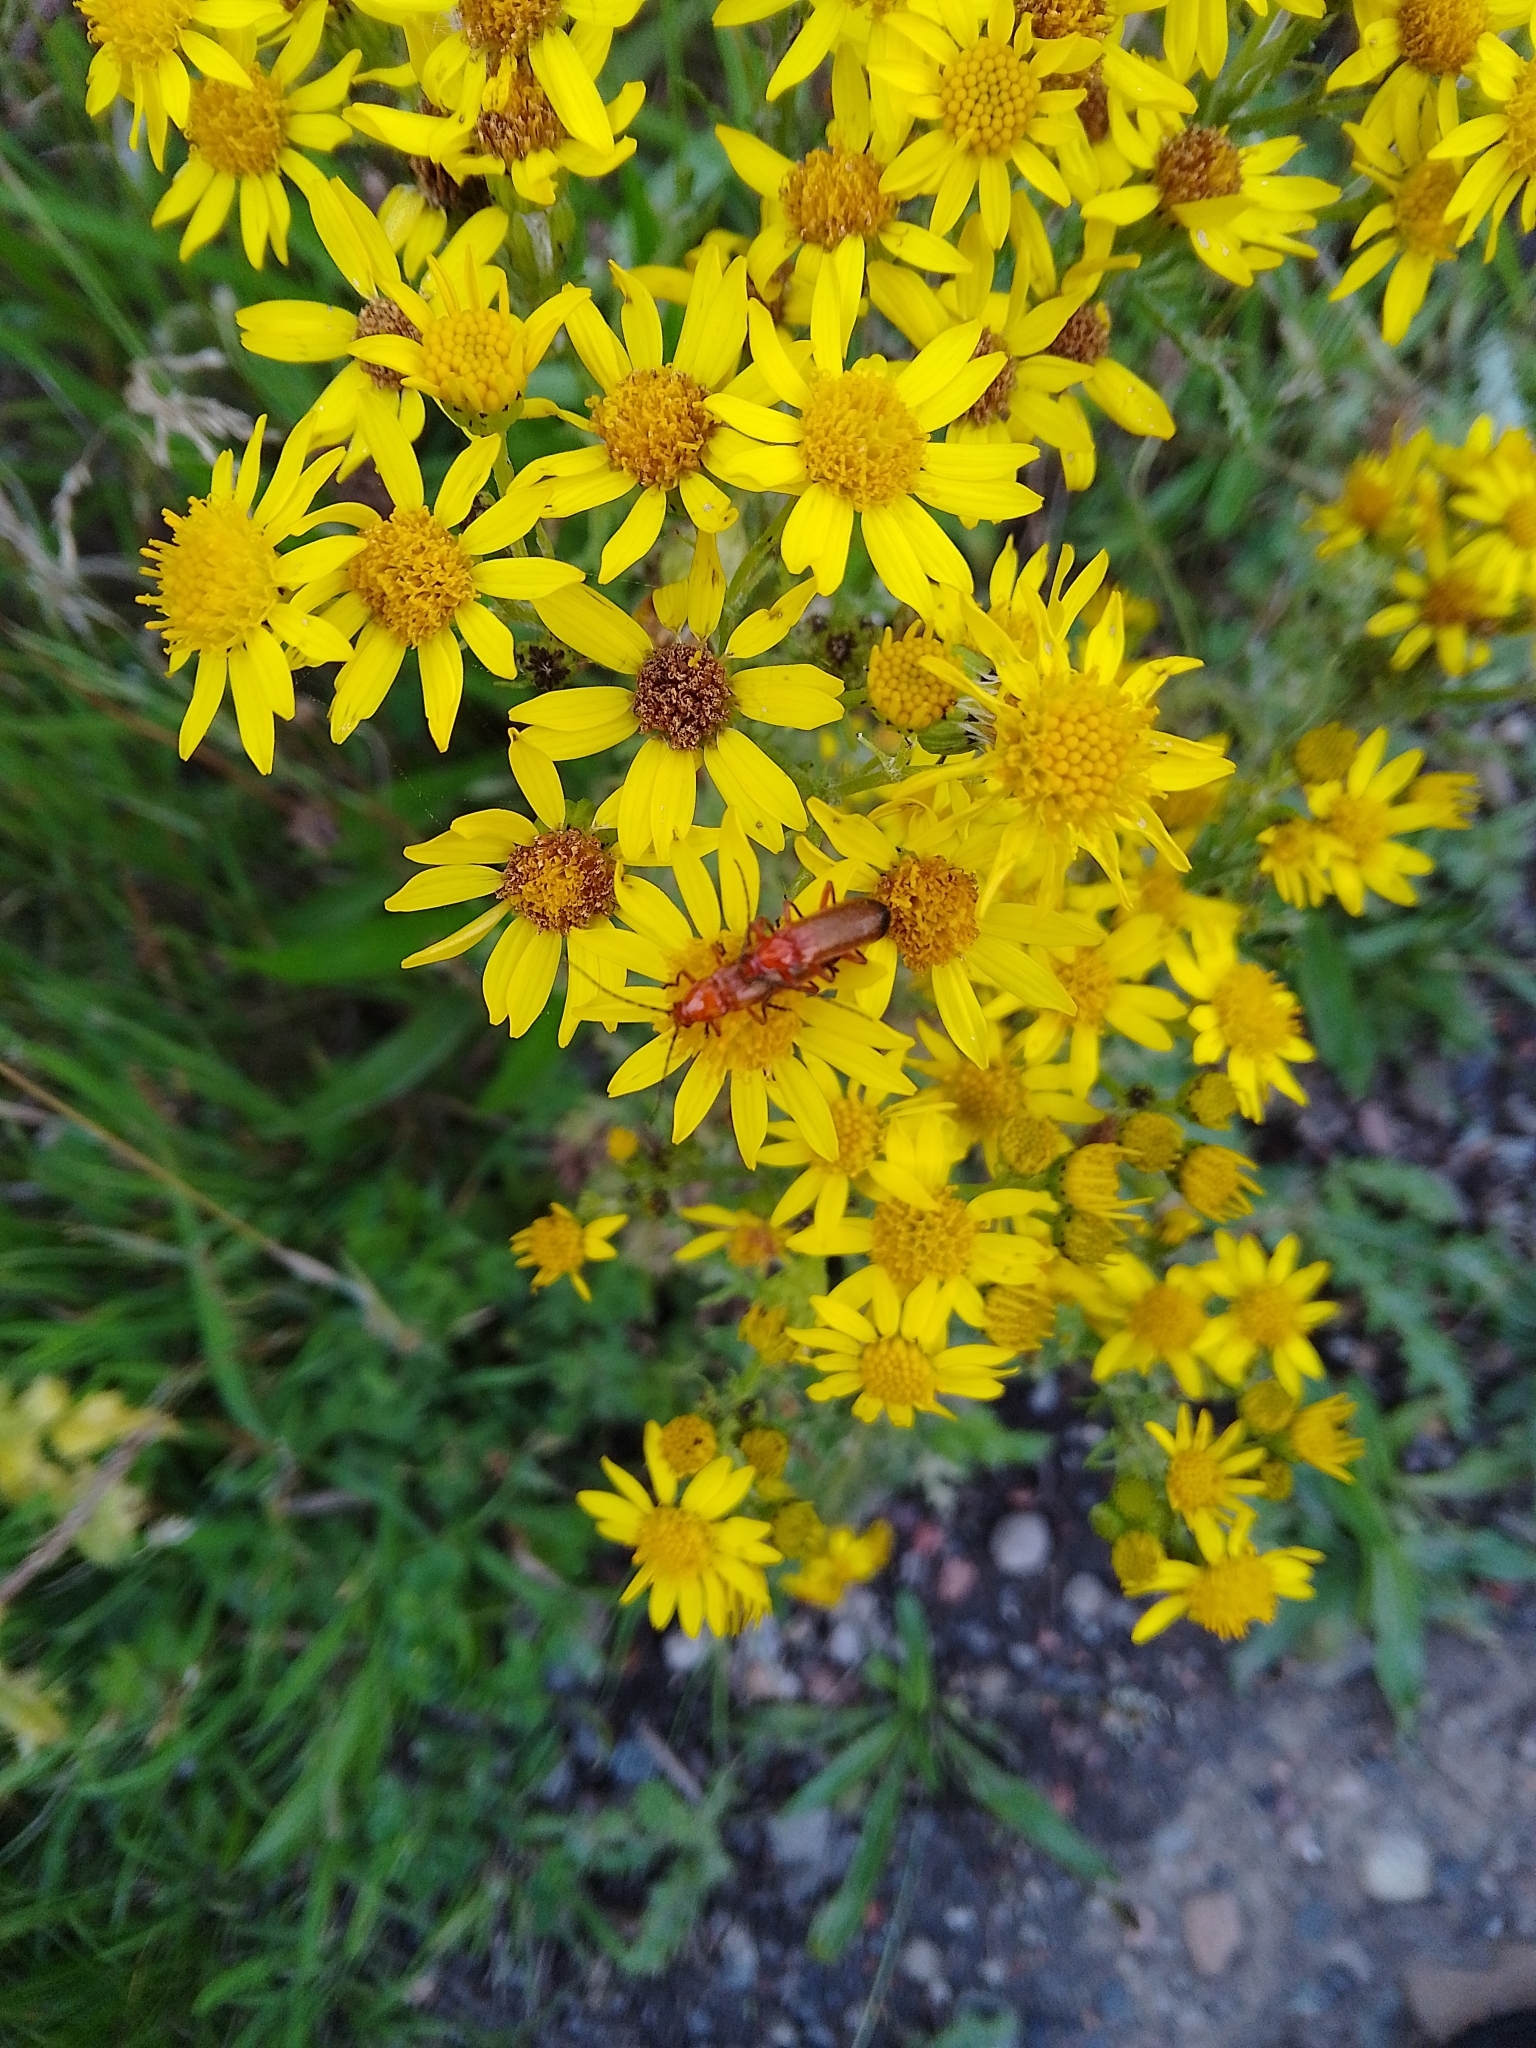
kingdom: Animalia
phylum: Arthropoda
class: Insecta
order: Coleoptera
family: Cantharidae
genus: Rhagonycha
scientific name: Rhagonycha fulva
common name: Common red soldier beetle
